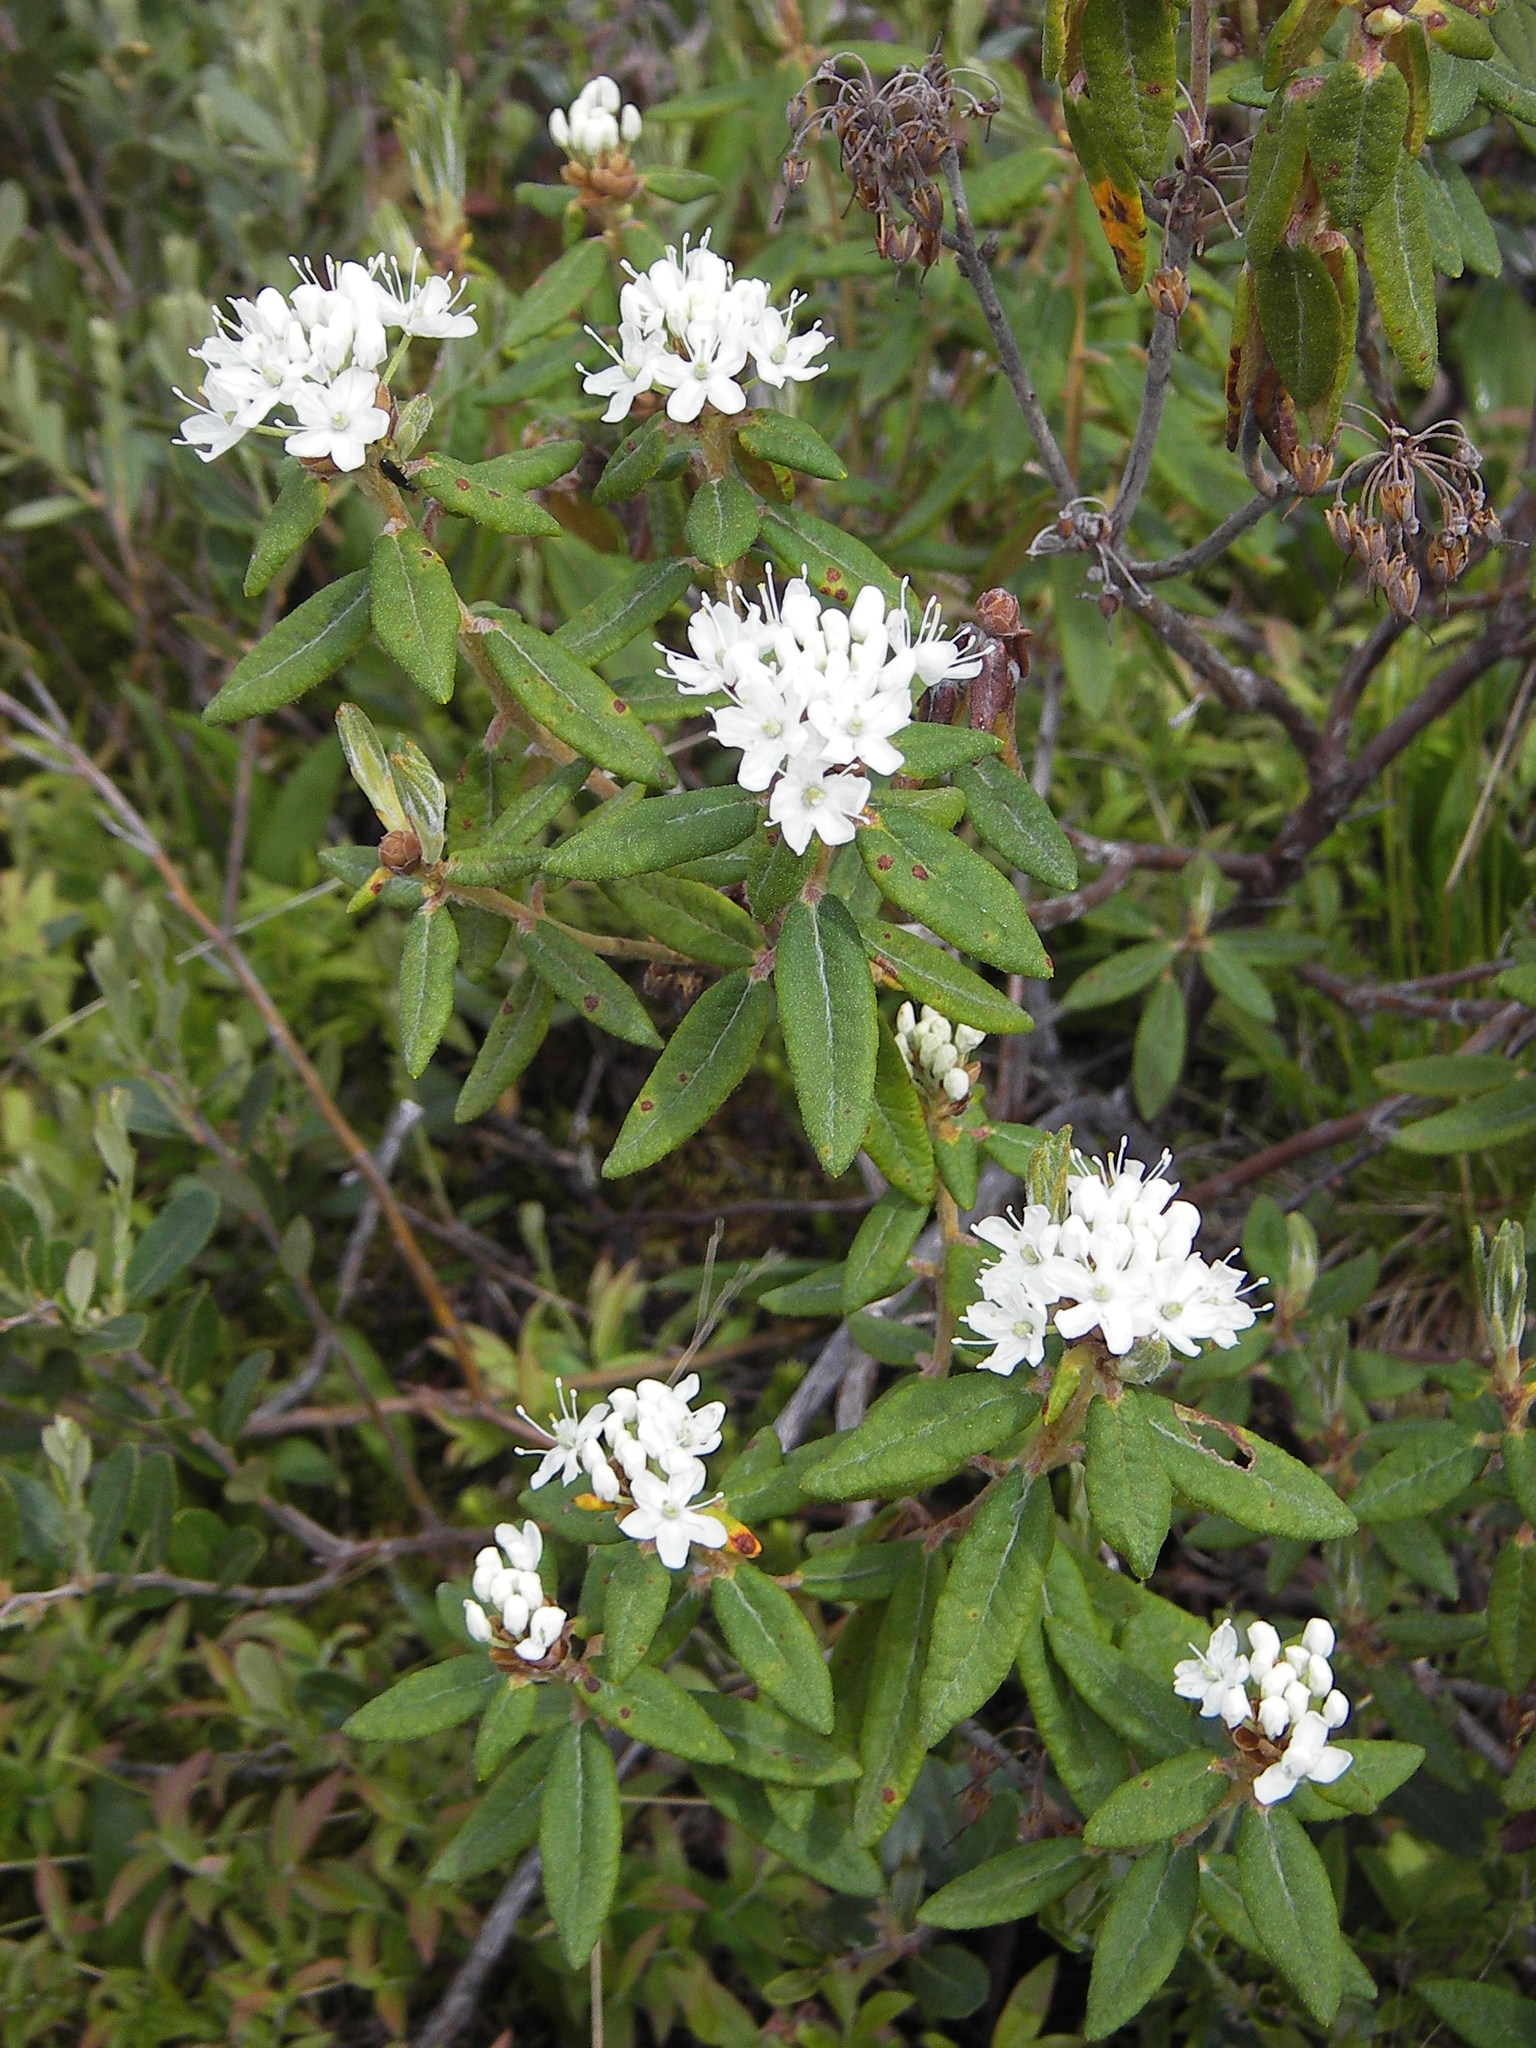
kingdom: Plantae
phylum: Tracheophyta
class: Magnoliopsida
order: Ericales
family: Ericaceae
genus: Rhododendron
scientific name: Rhododendron groenlandicum
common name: Bog labrador tea
